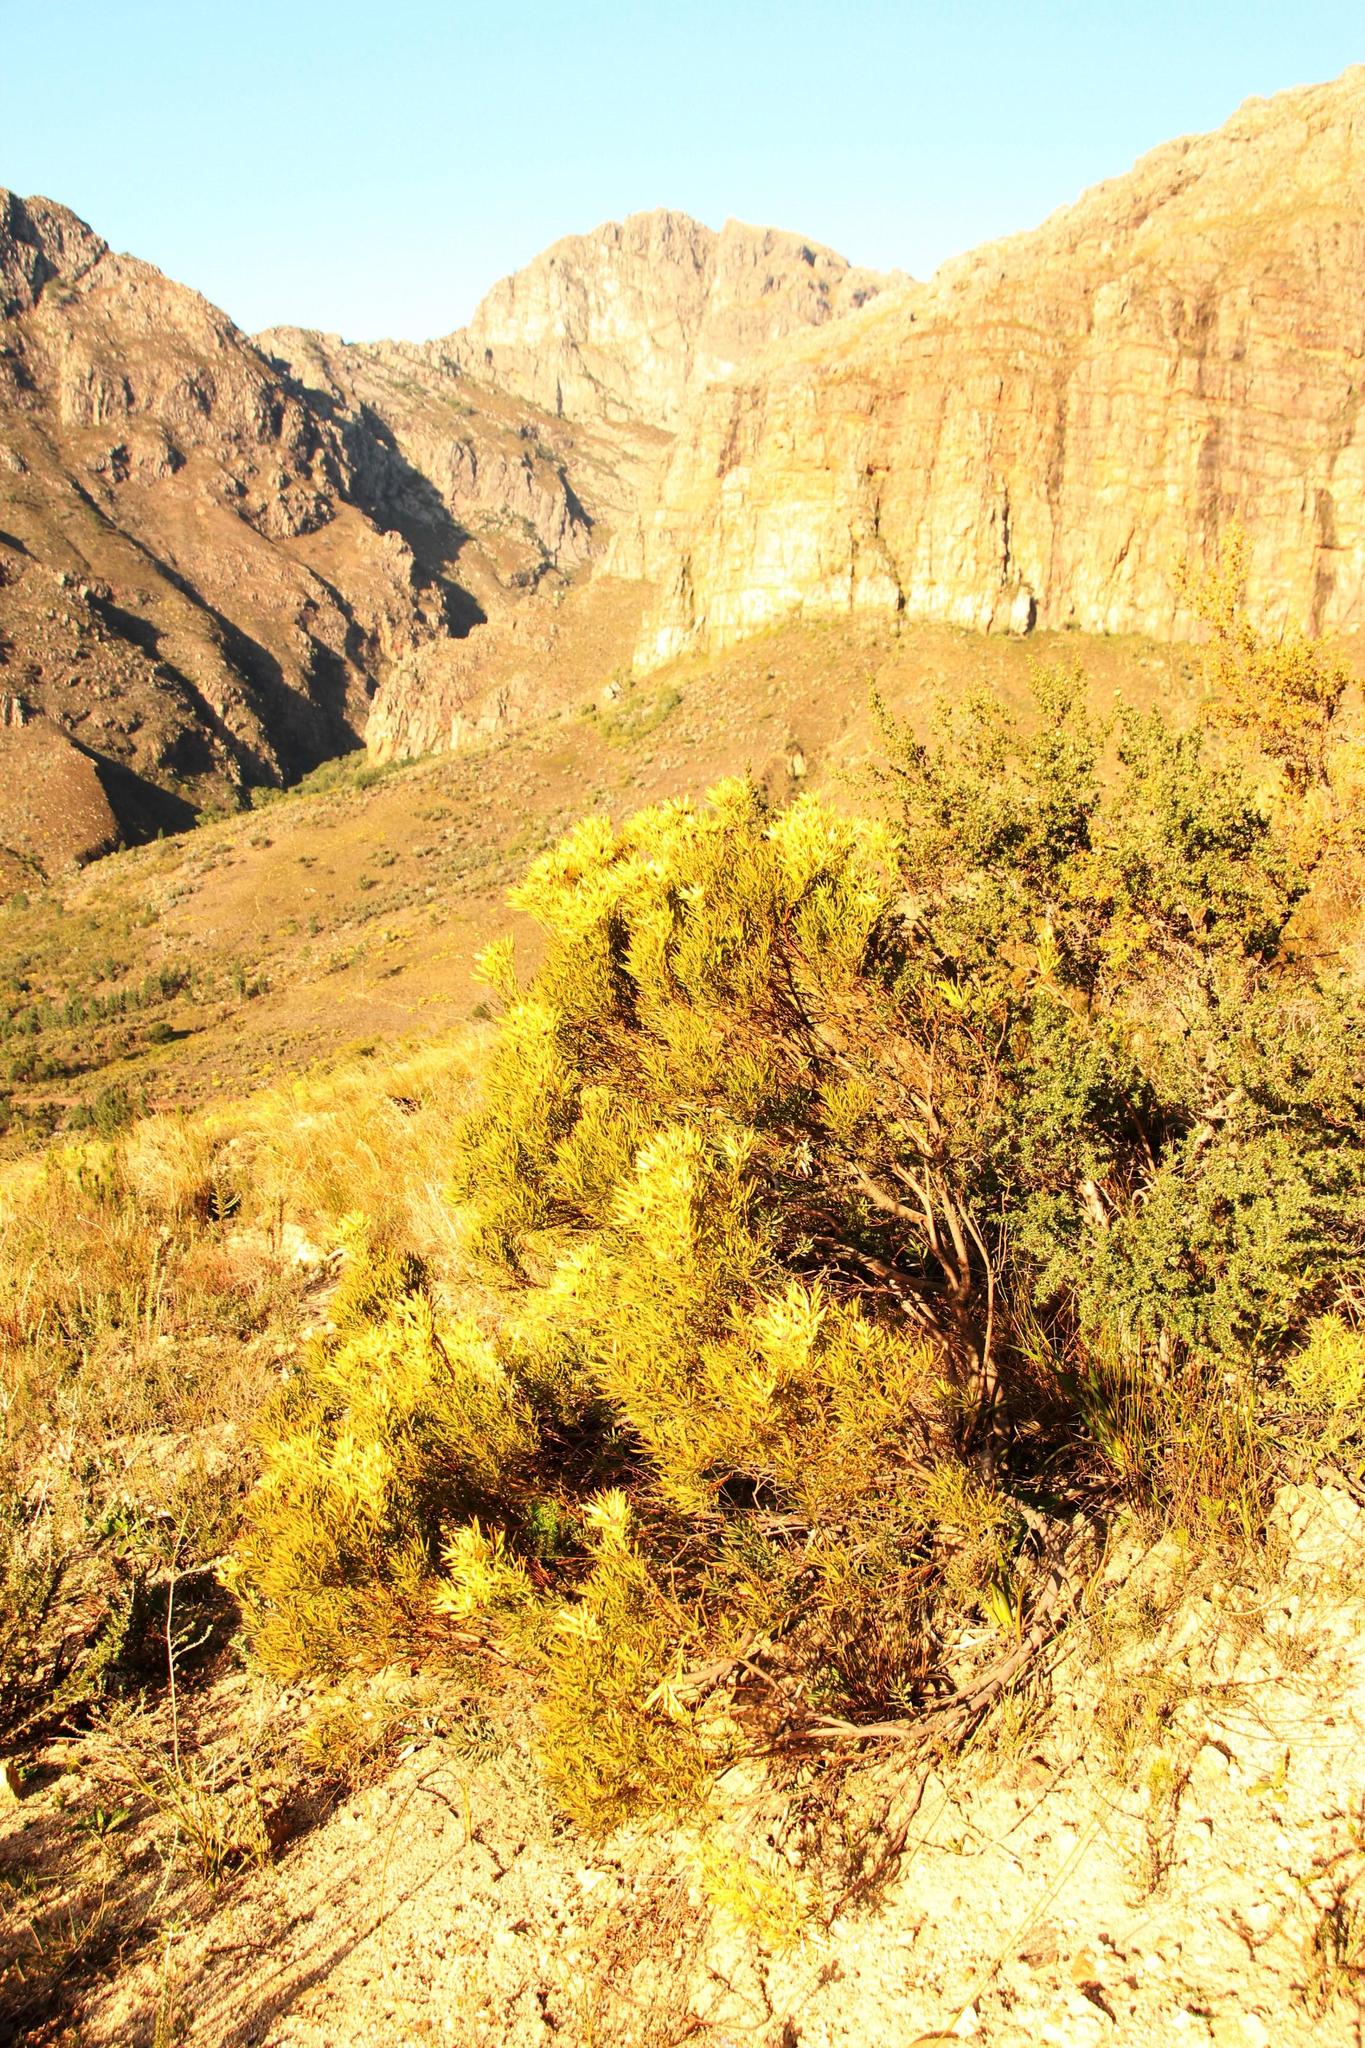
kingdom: Plantae
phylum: Tracheophyta
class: Magnoliopsida
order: Proteales
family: Proteaceae
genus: Leucadendron
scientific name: Leucadendron salignum
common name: Common sunshine conebush
